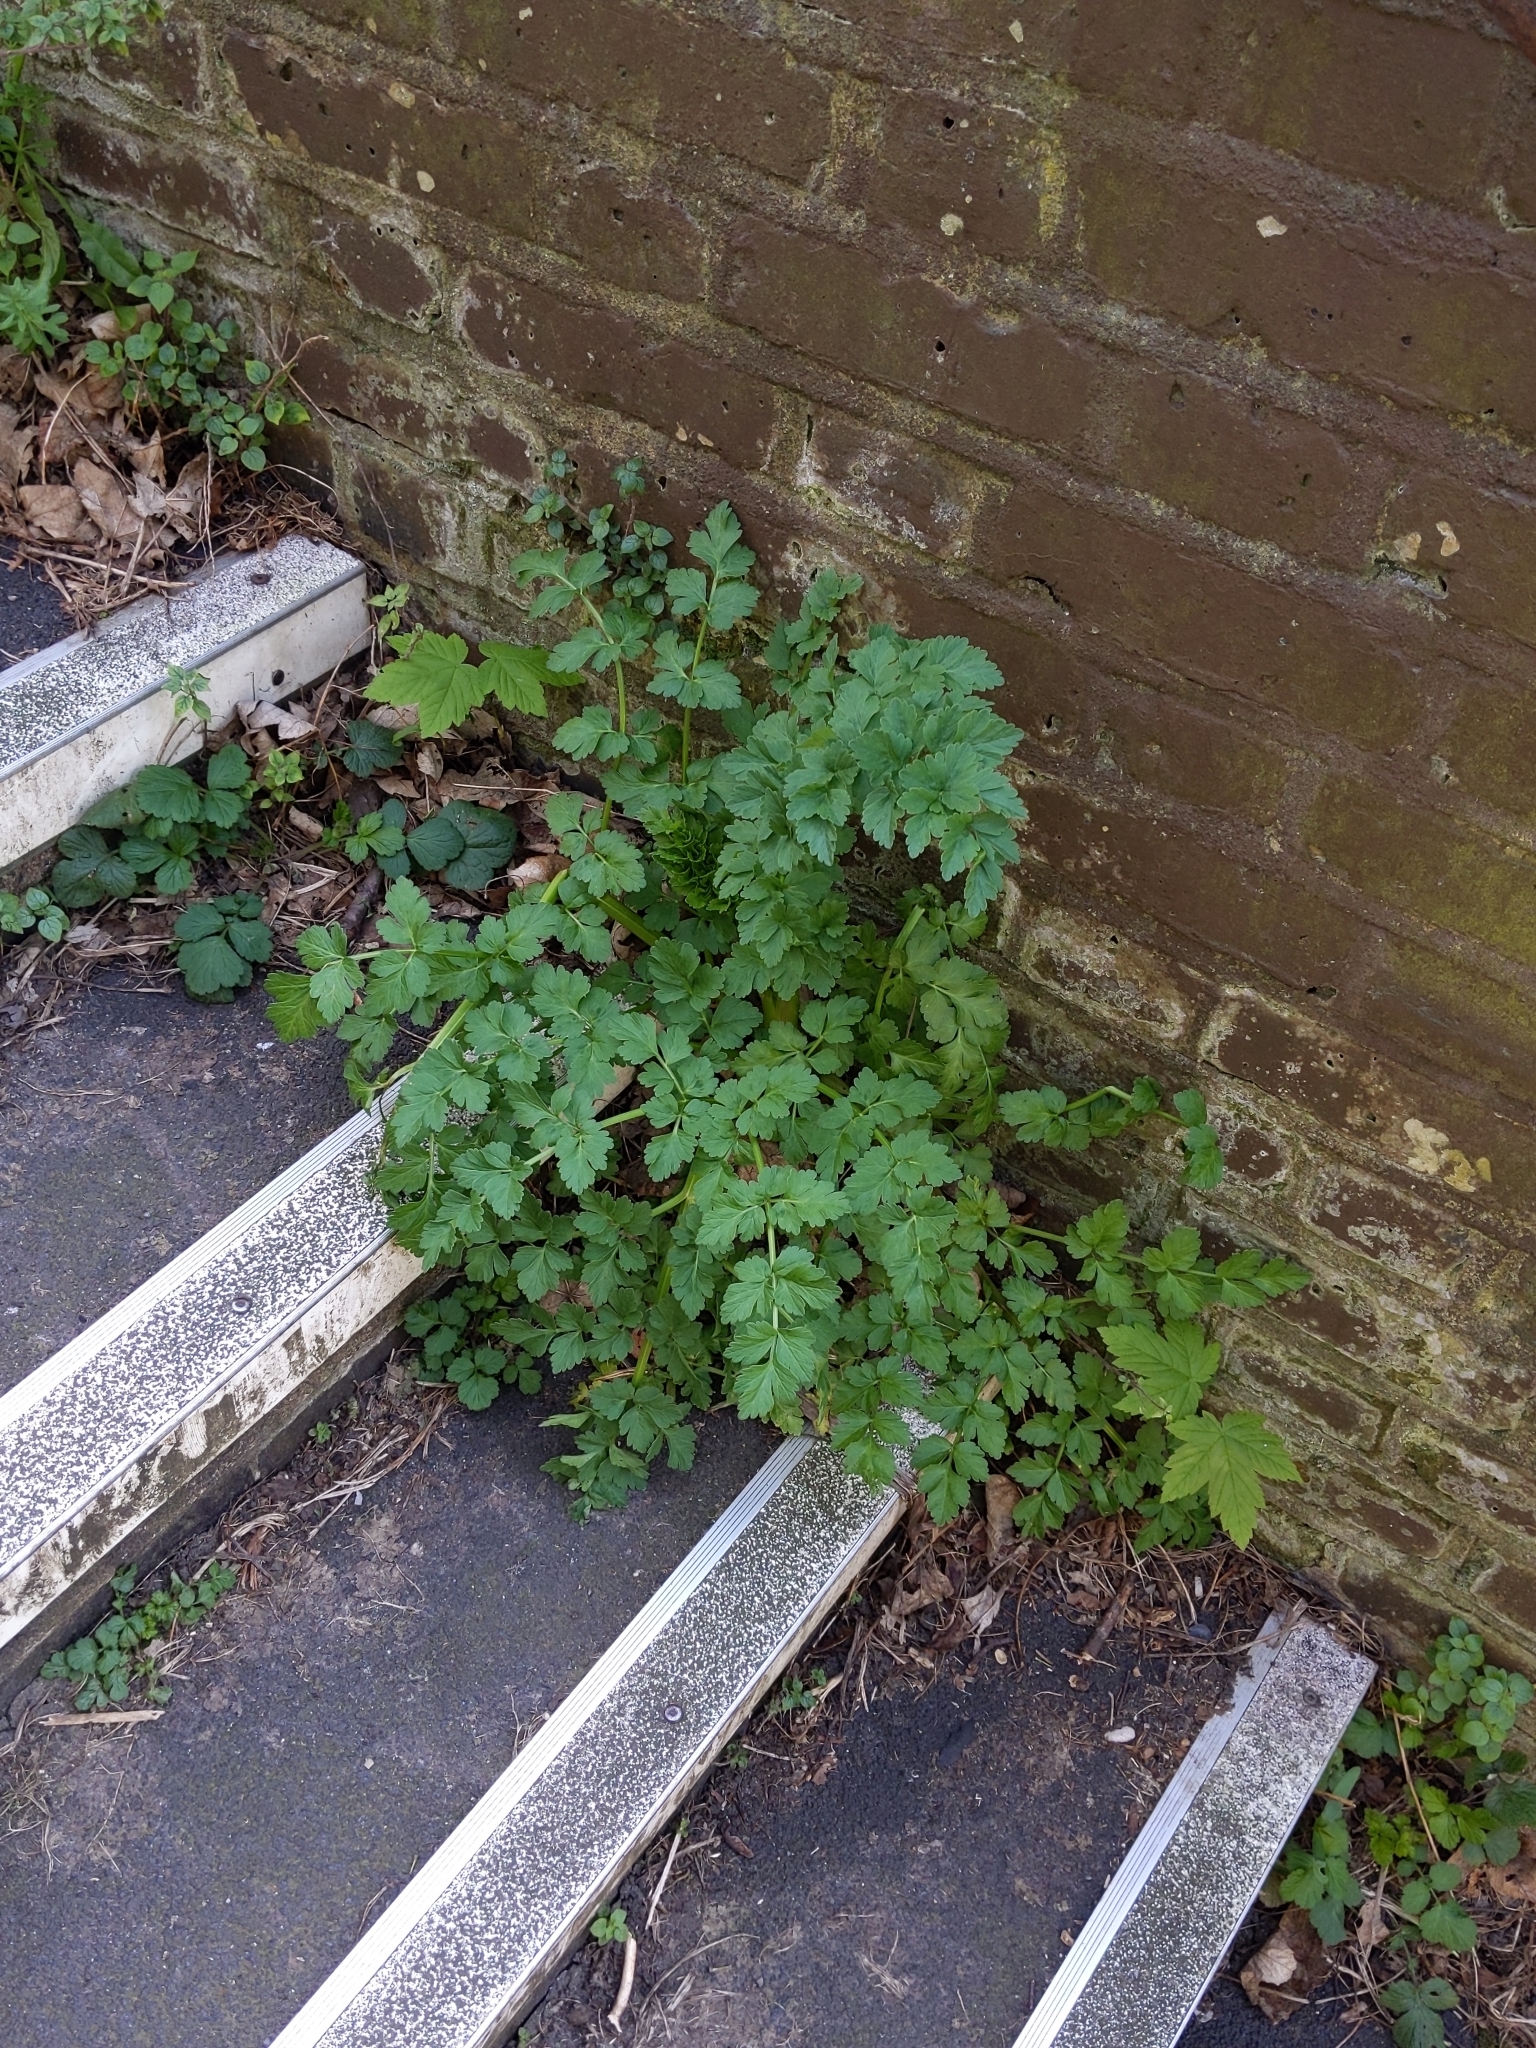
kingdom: Plantae
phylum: Tracheophyta
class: Magnoliopsida
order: Apiales
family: Apiaceae
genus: Oenanthe
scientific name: Oenanthe crocata
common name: Hemlock water-dropwort
